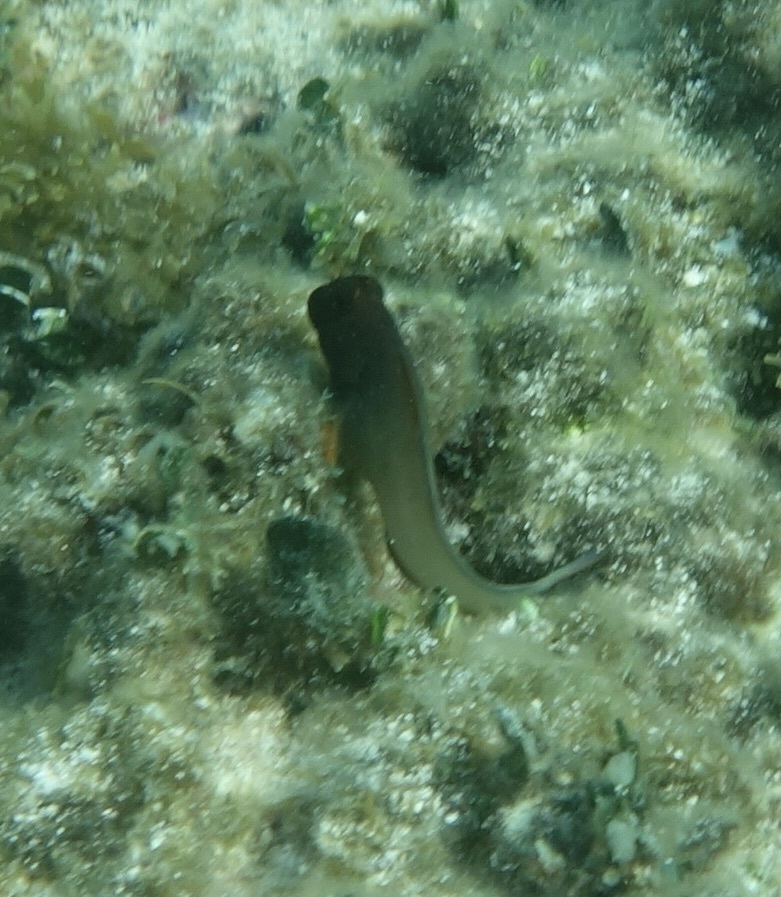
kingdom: Animalia
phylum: Chordata
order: Perciformes
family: Blenniidae
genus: Ophioblennius
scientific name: Ophioblennius macclurei
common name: Redlip blenny
